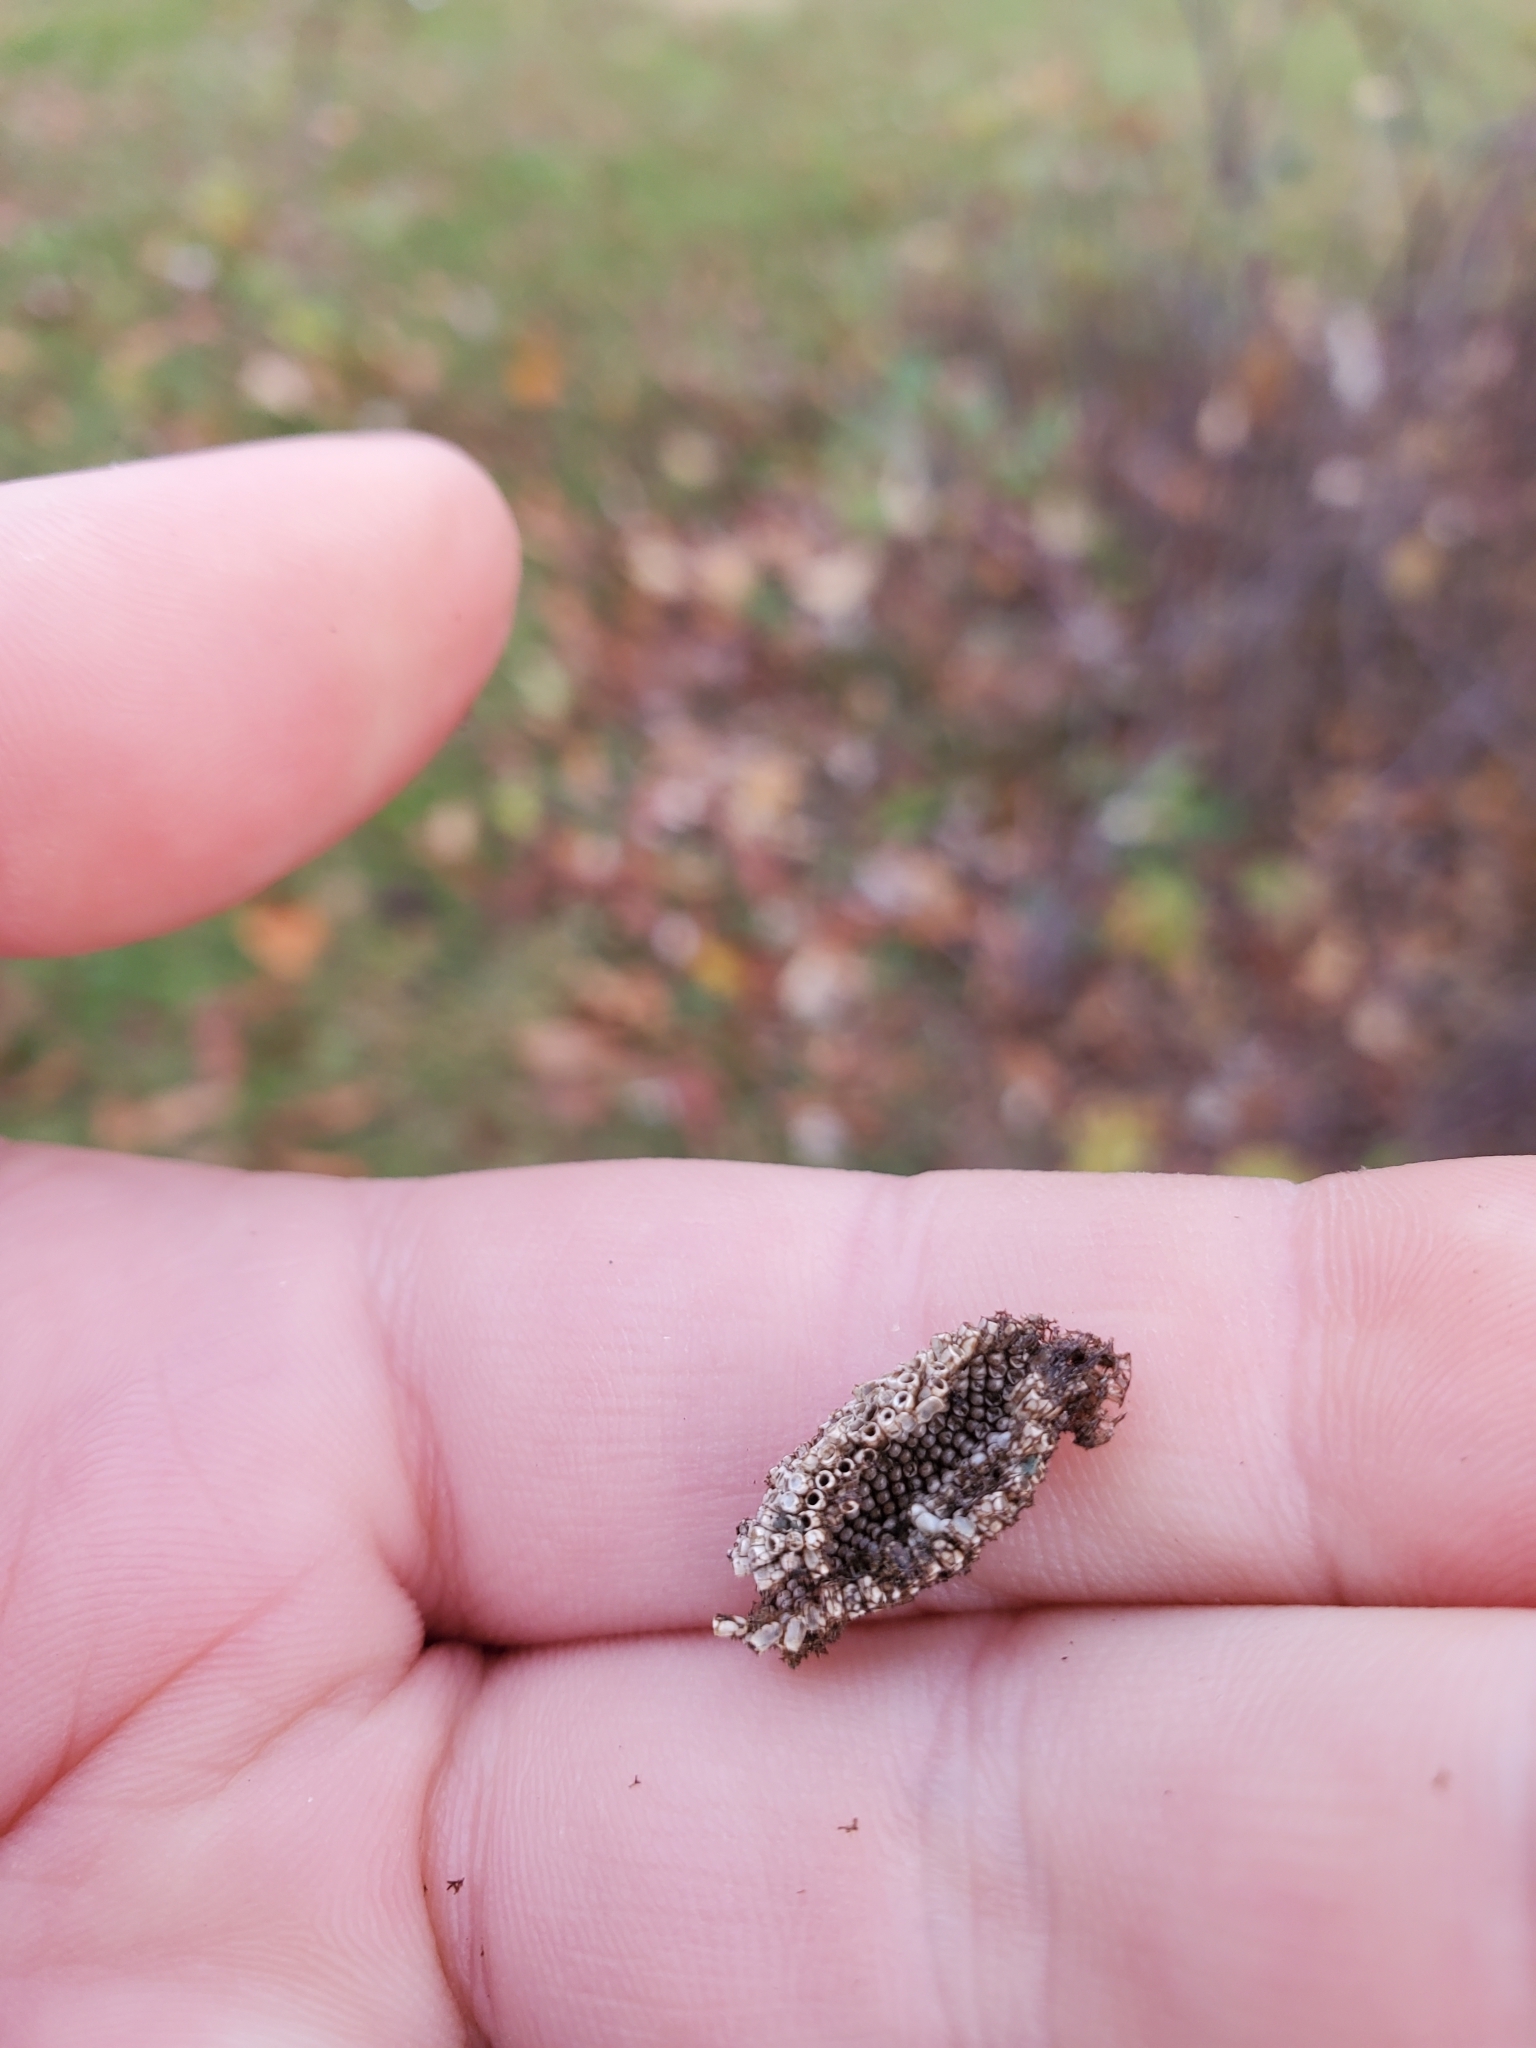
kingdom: Animalia
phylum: Arthropoda
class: Insecta
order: Lepidoptera
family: Saturniidae
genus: Hemileuca
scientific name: Hemileuca maia
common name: Eastern buckmoth
